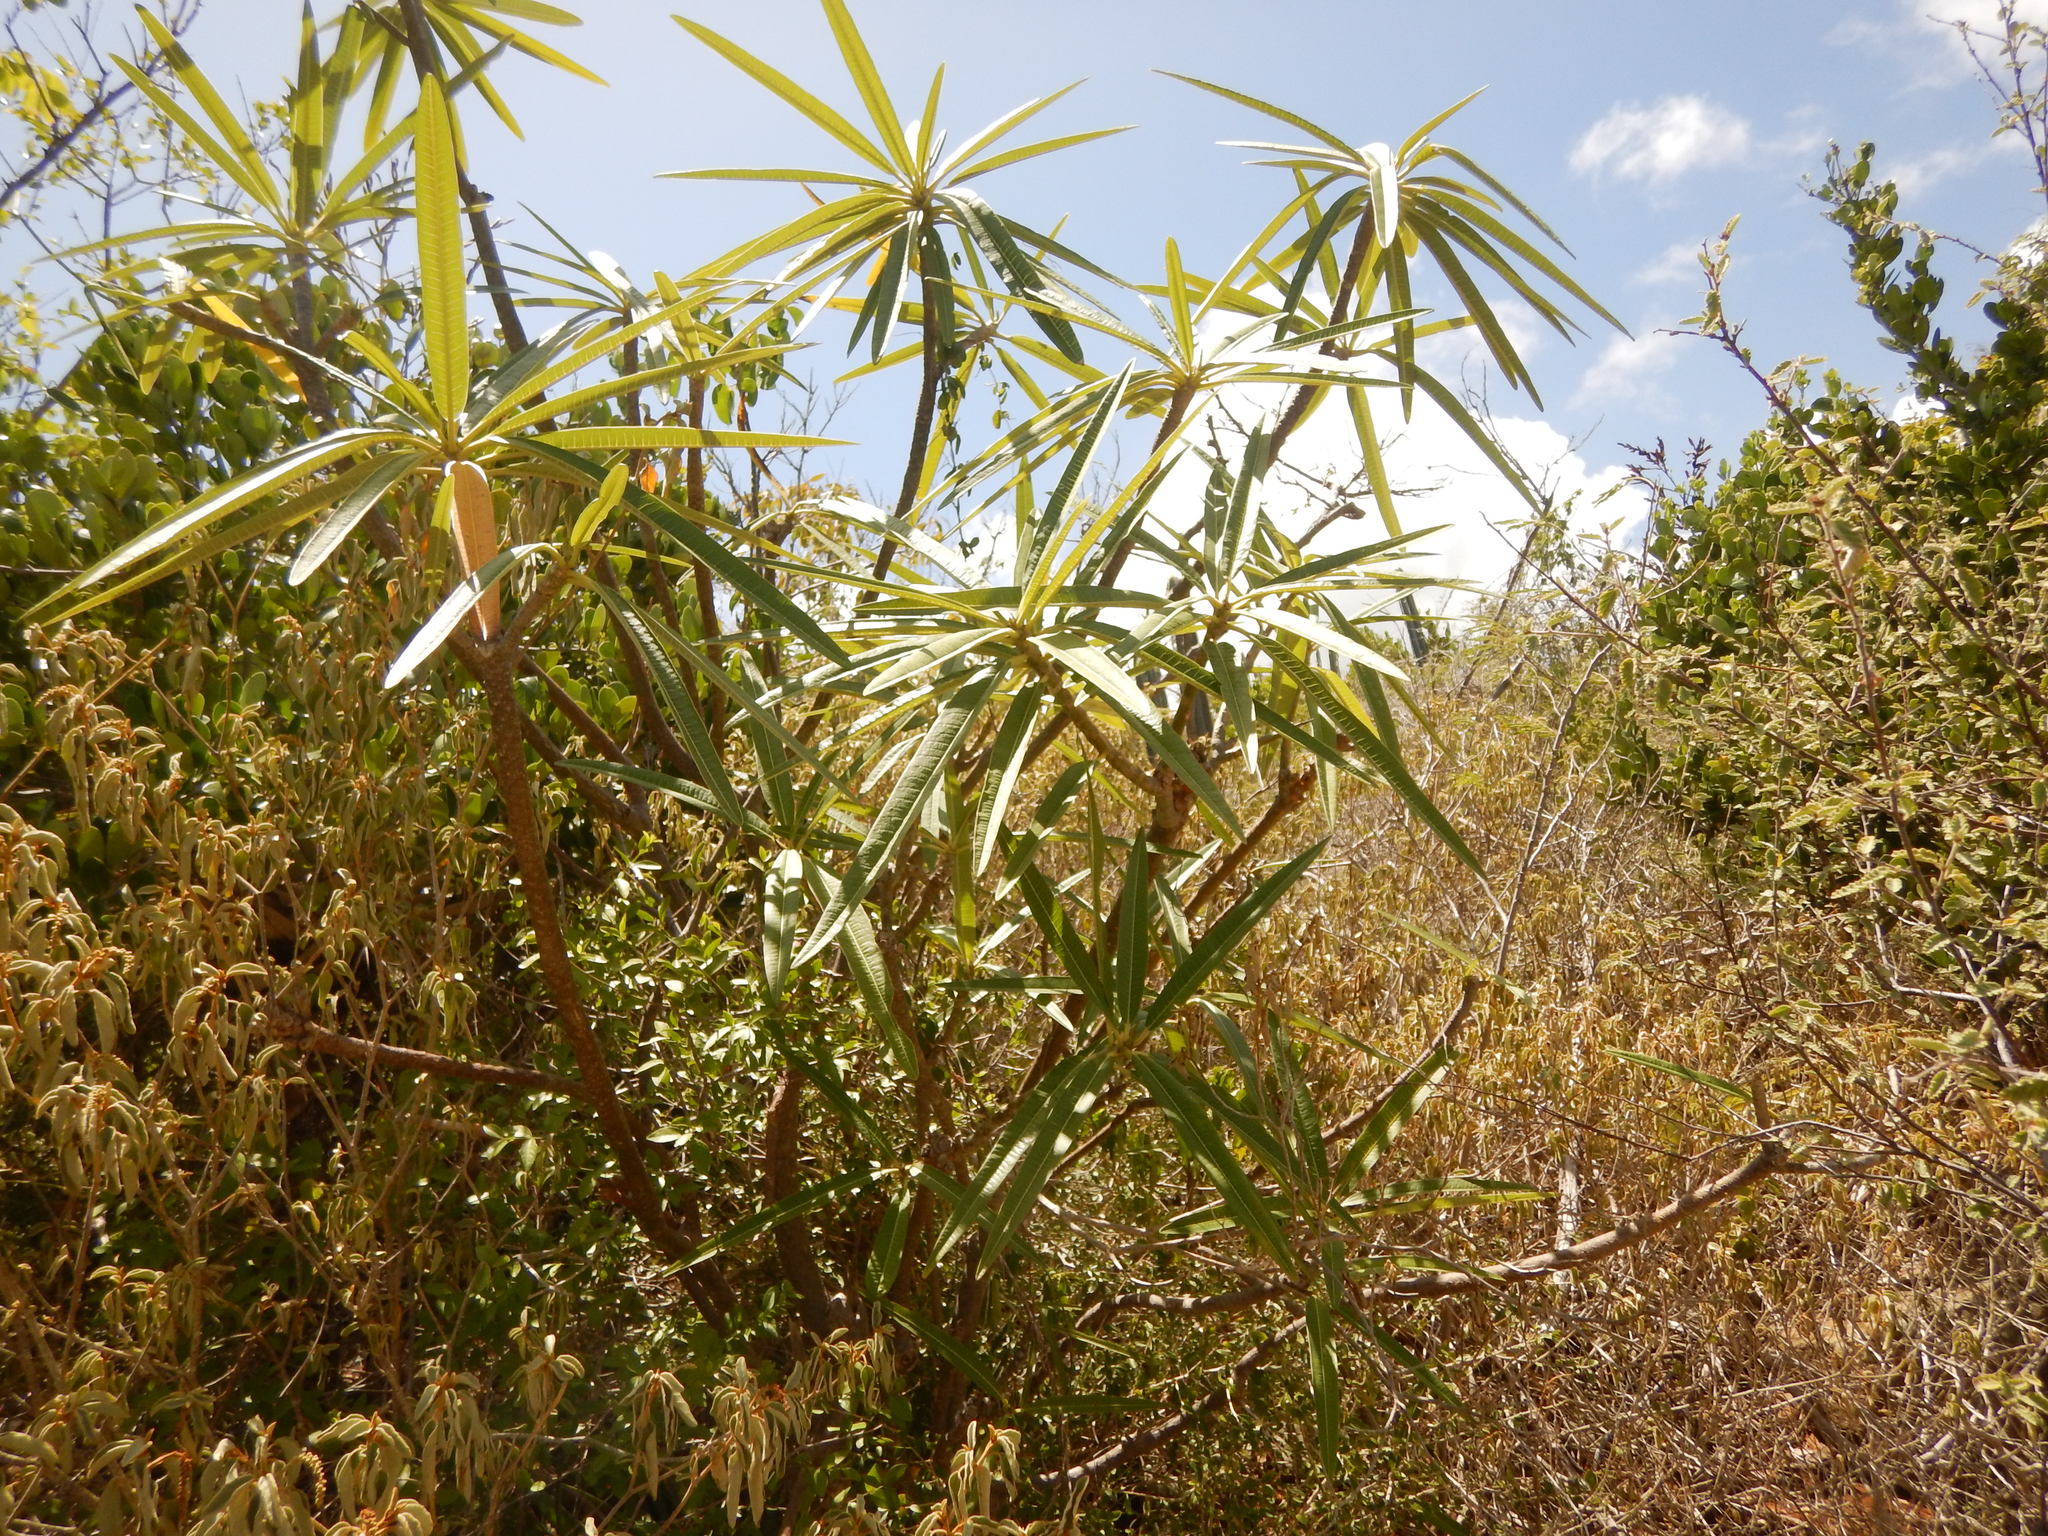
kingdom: Plantae
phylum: Tracheophyta
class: Magnoliopsida
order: Gentianales
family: Apocynaceae
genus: Plumeria
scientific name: Plumeria alba
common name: Wild frangipani
